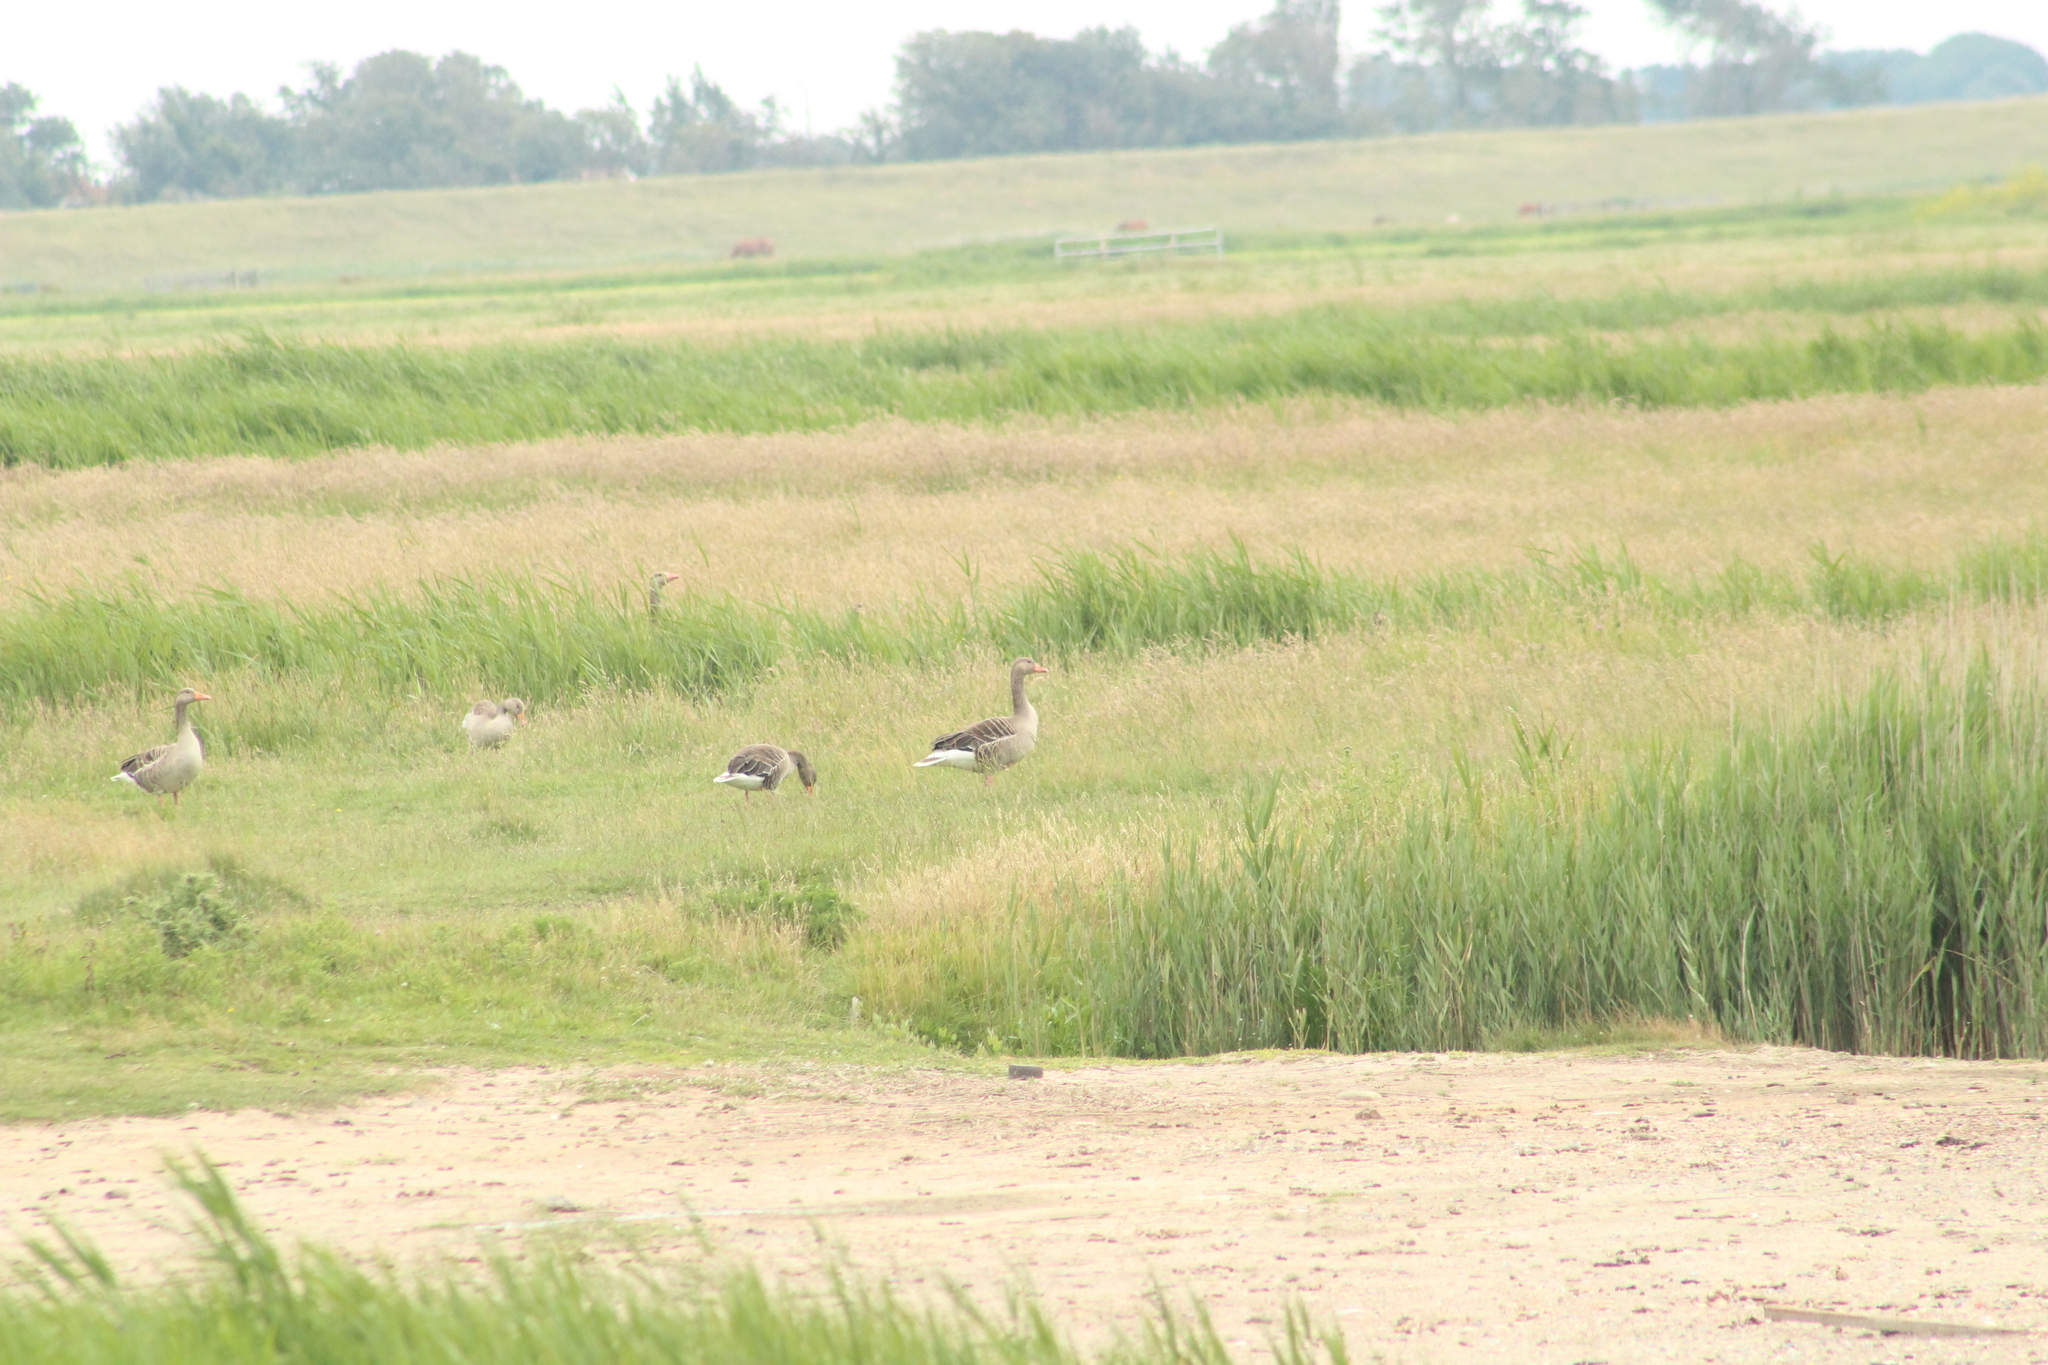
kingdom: Animalia
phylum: Chordata
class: Aves
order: Anseriformes
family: Anatidae
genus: Anser
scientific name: Anser anser
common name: Greylag goose
